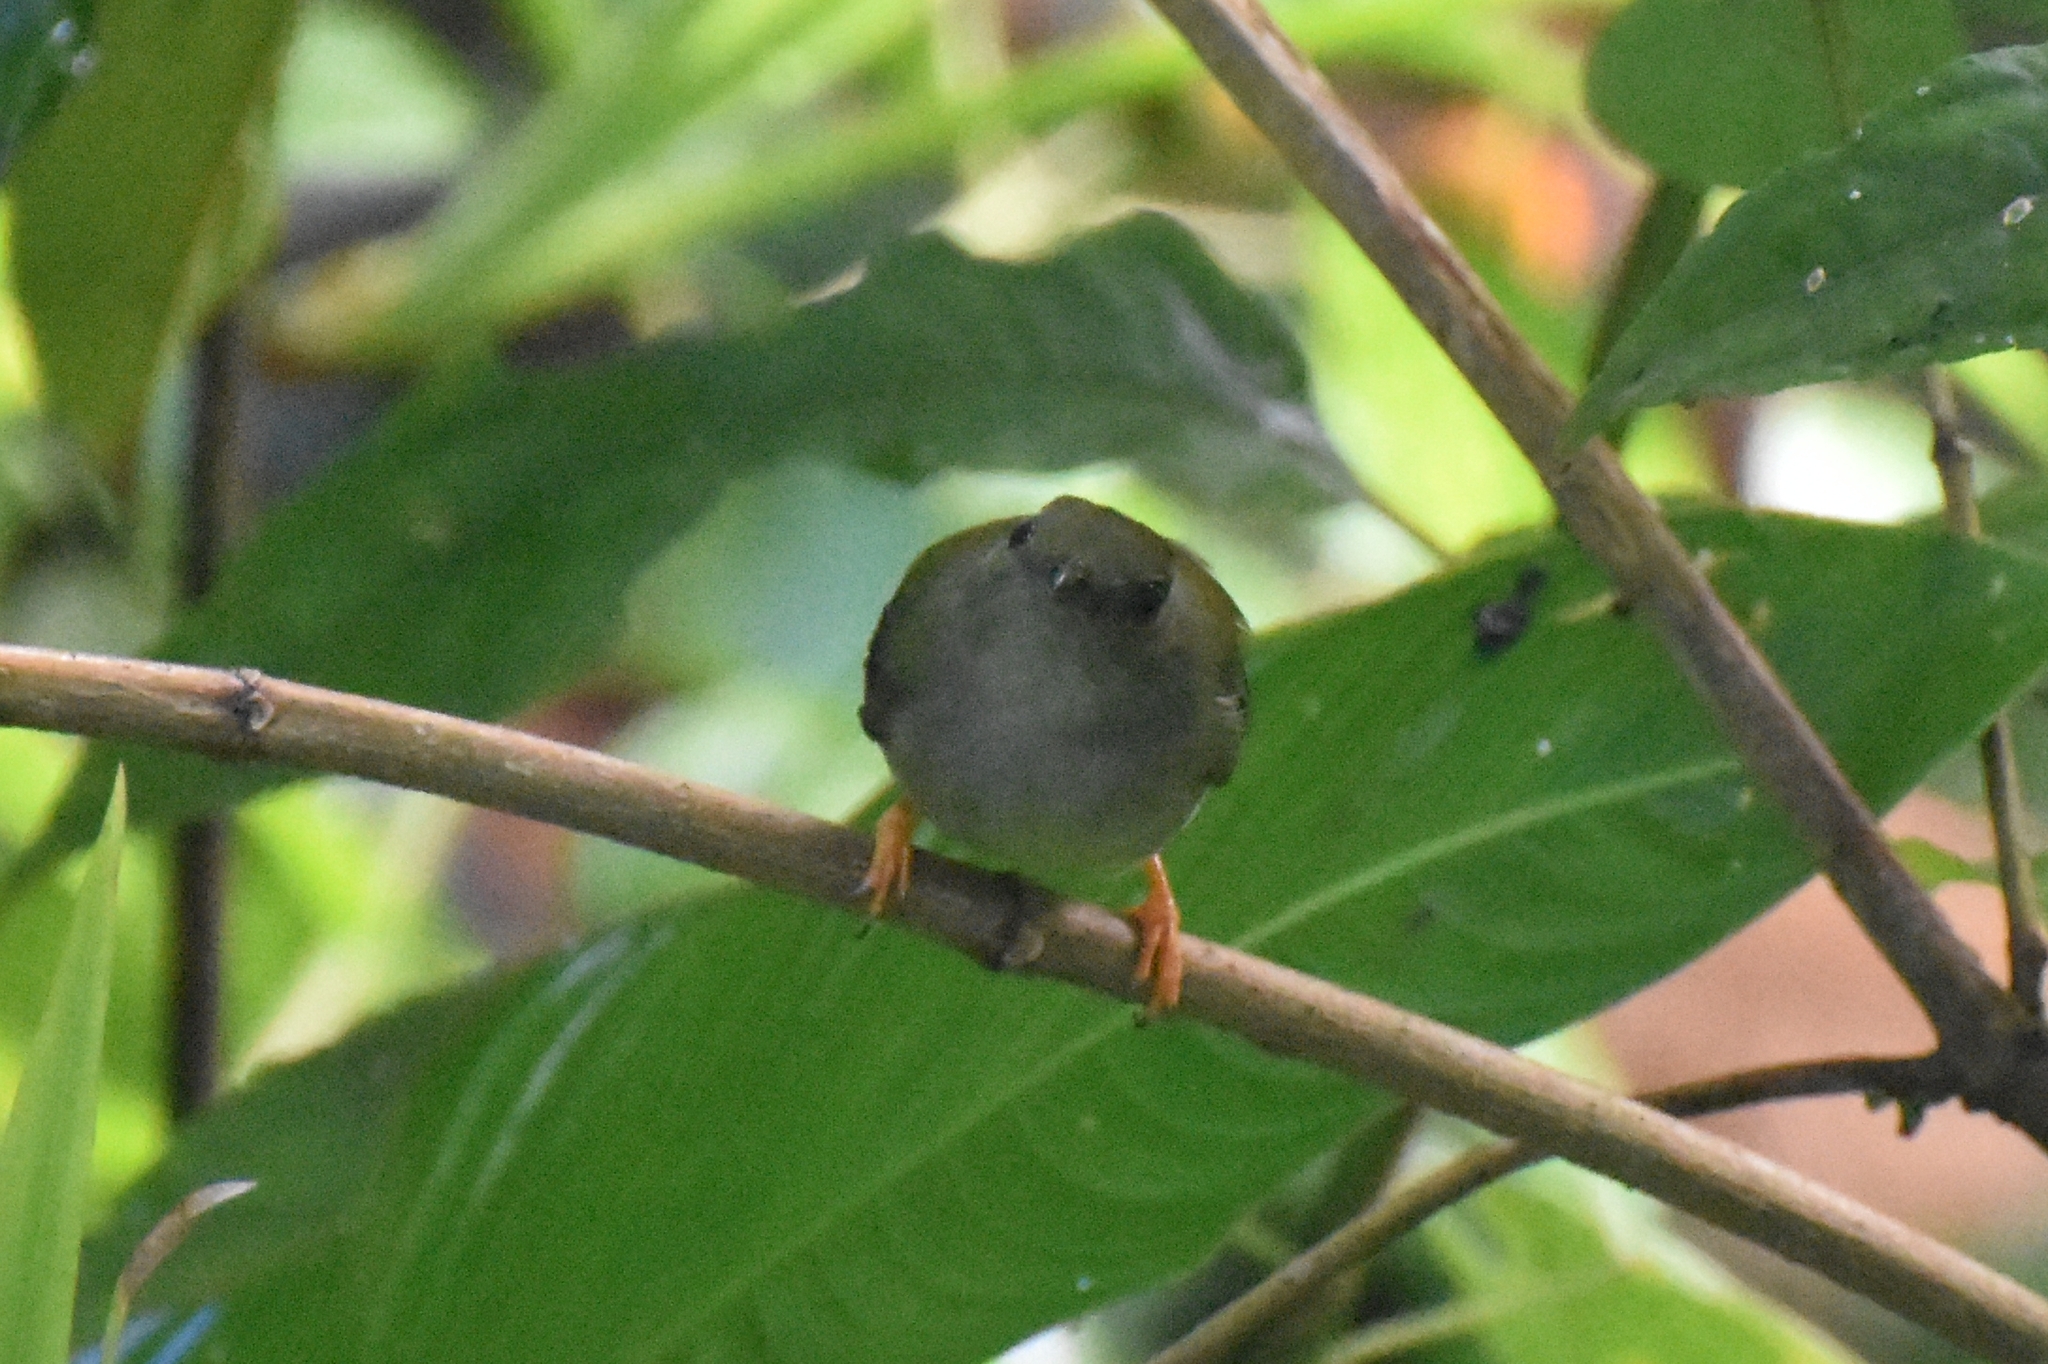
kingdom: Animalia
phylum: Chordata
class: Aves
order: Passeriformes
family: Pipridae
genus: Manacus
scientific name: Manacus manacus
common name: White-bearded manakin
